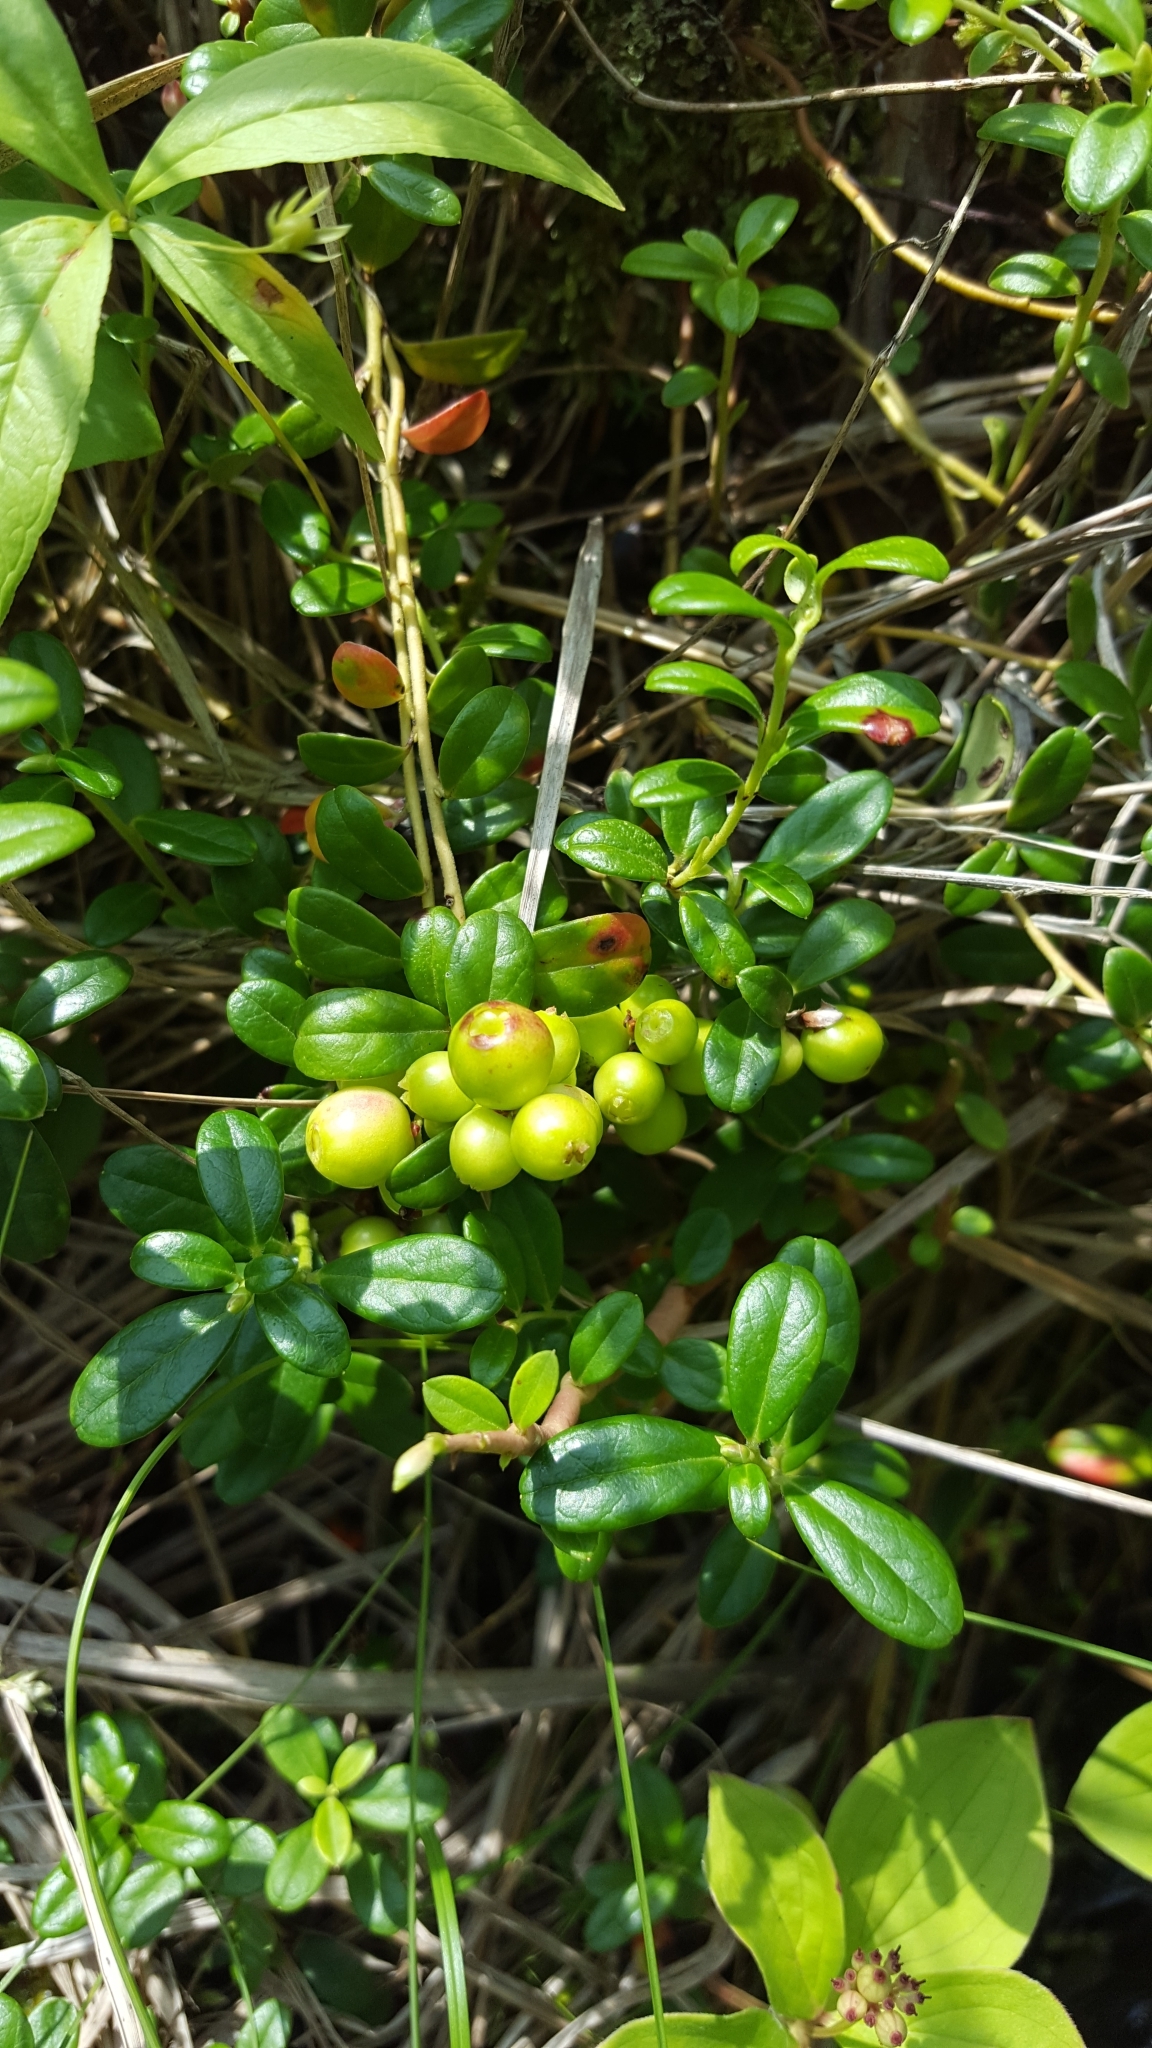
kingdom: Plantae
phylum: Tracheophyta
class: Magnoliopsida
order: Ericales
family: Ericaceae
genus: Vaccinium
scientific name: Vaccinium vitis-idaea
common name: Cowberry
